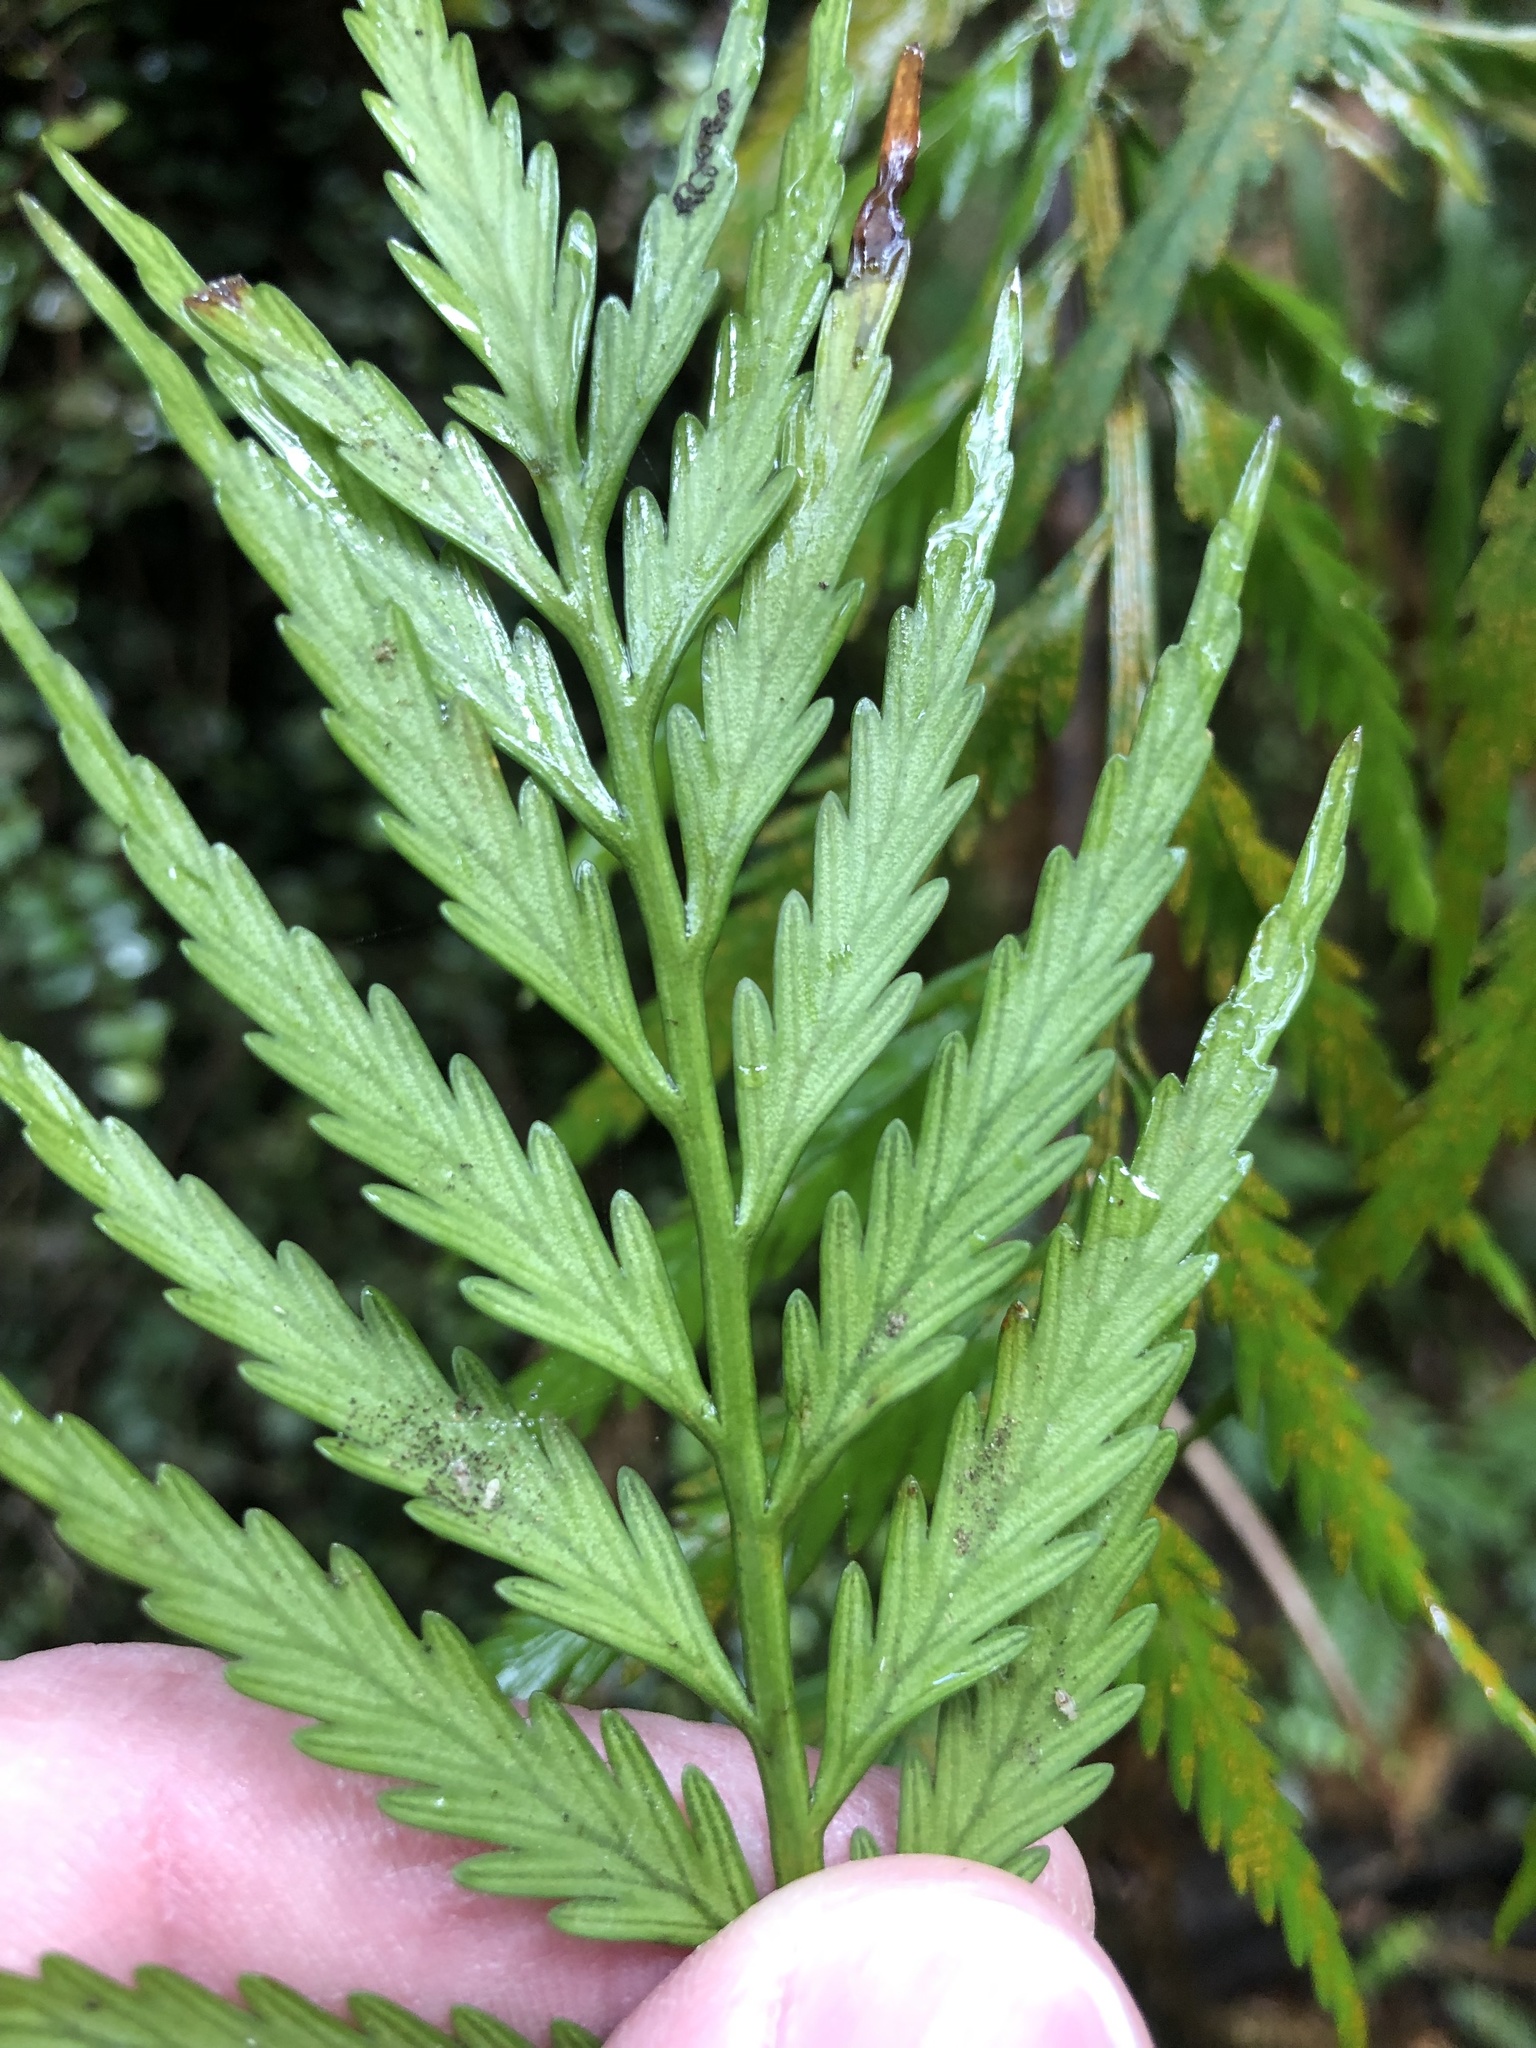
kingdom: Plantae
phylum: Tracheophyta
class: Polypodiopsida
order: Polypodiales
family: Aspleniaceae
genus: Asplenium
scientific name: Asplenium flaccidum
